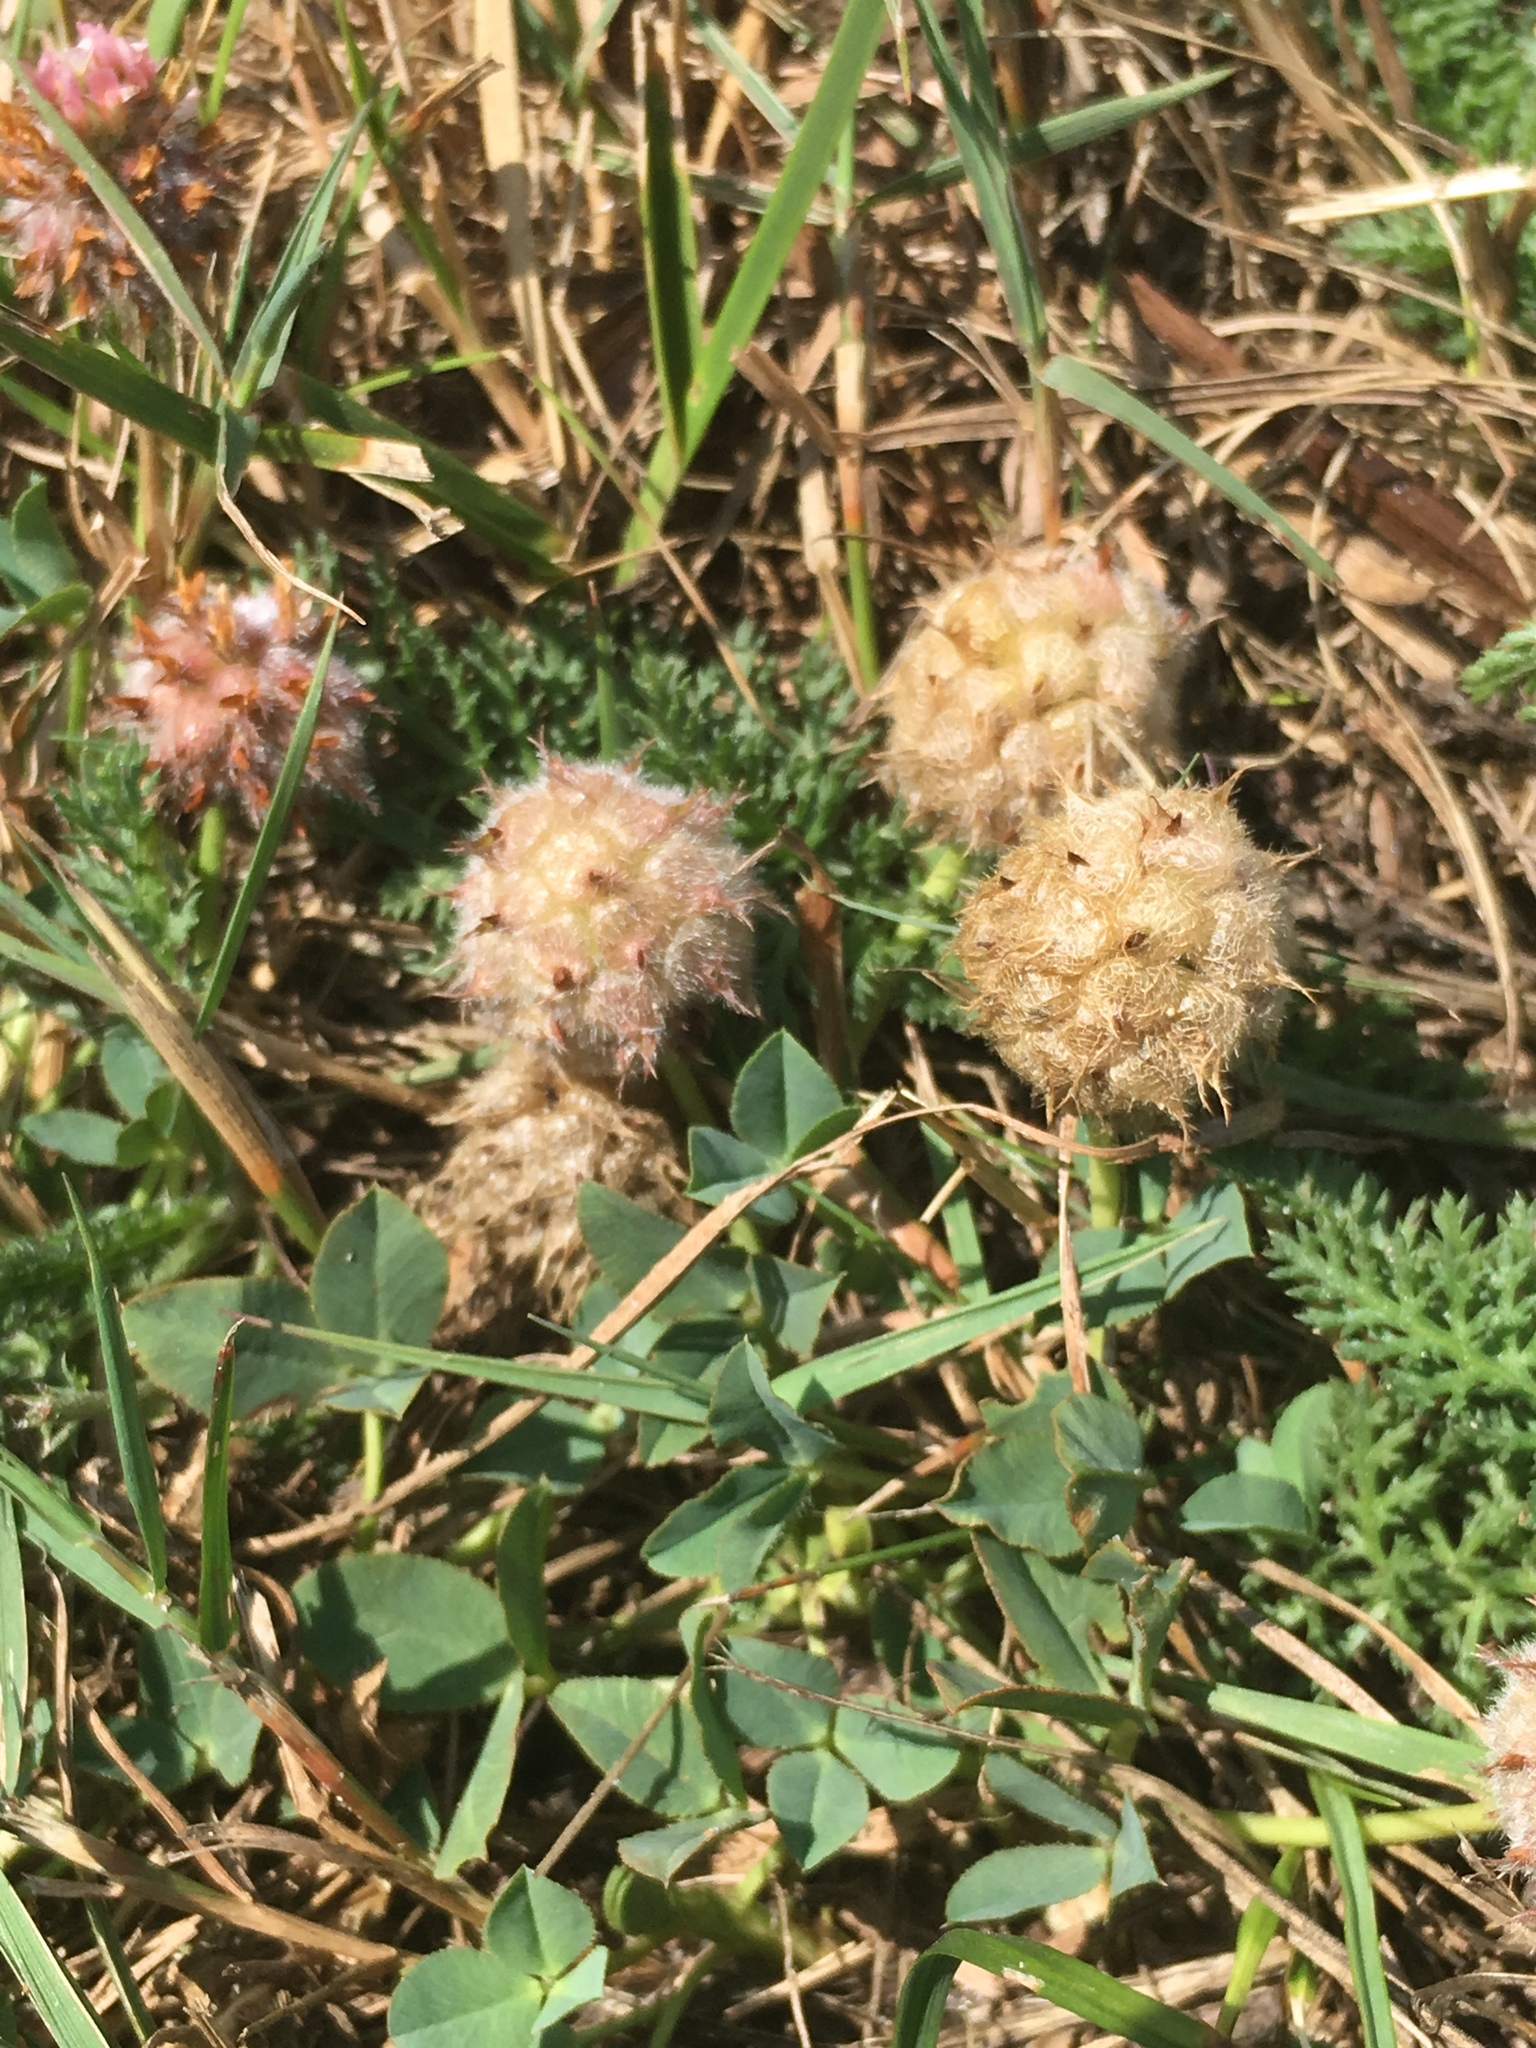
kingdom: Plantae
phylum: Tracheophyta
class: Magnoliopsida
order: Fabales
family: Fabaceae
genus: Trifolium
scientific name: Trifolium fragiferum
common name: Strawberry clover
